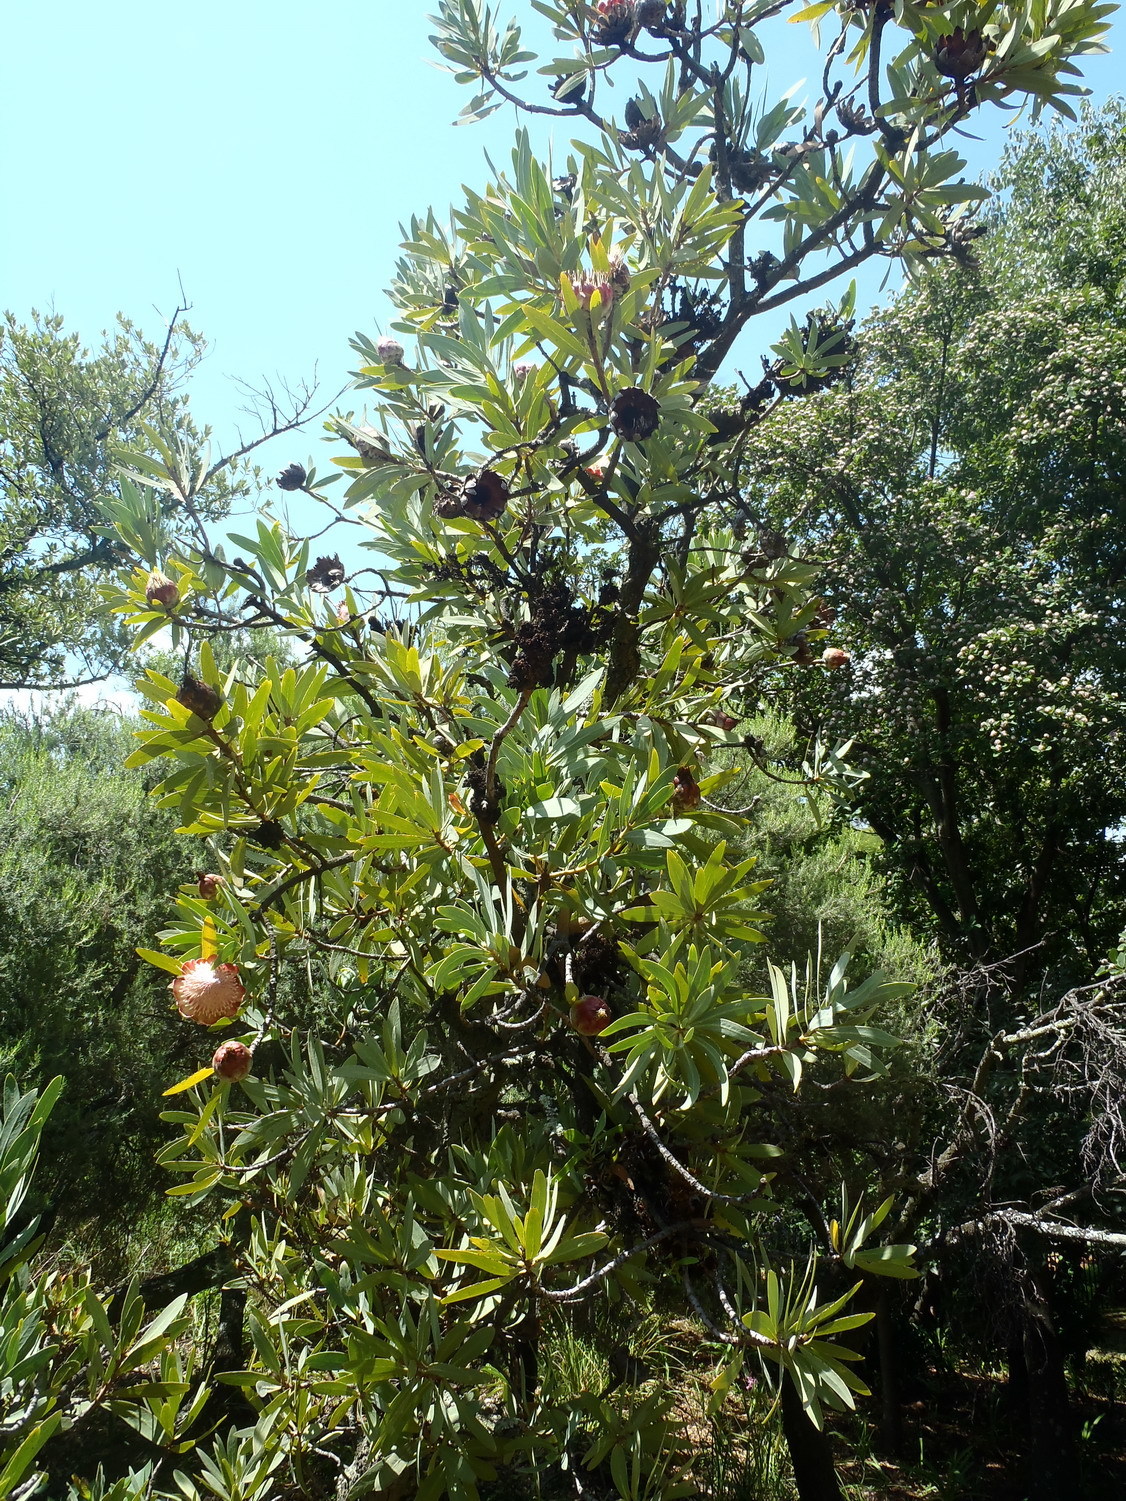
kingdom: Plantae
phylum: Tracheophyta
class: Magnoliopsida
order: Proteales
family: Proteaceae
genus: Protea
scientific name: Protea caffra
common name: Common sugarbush
